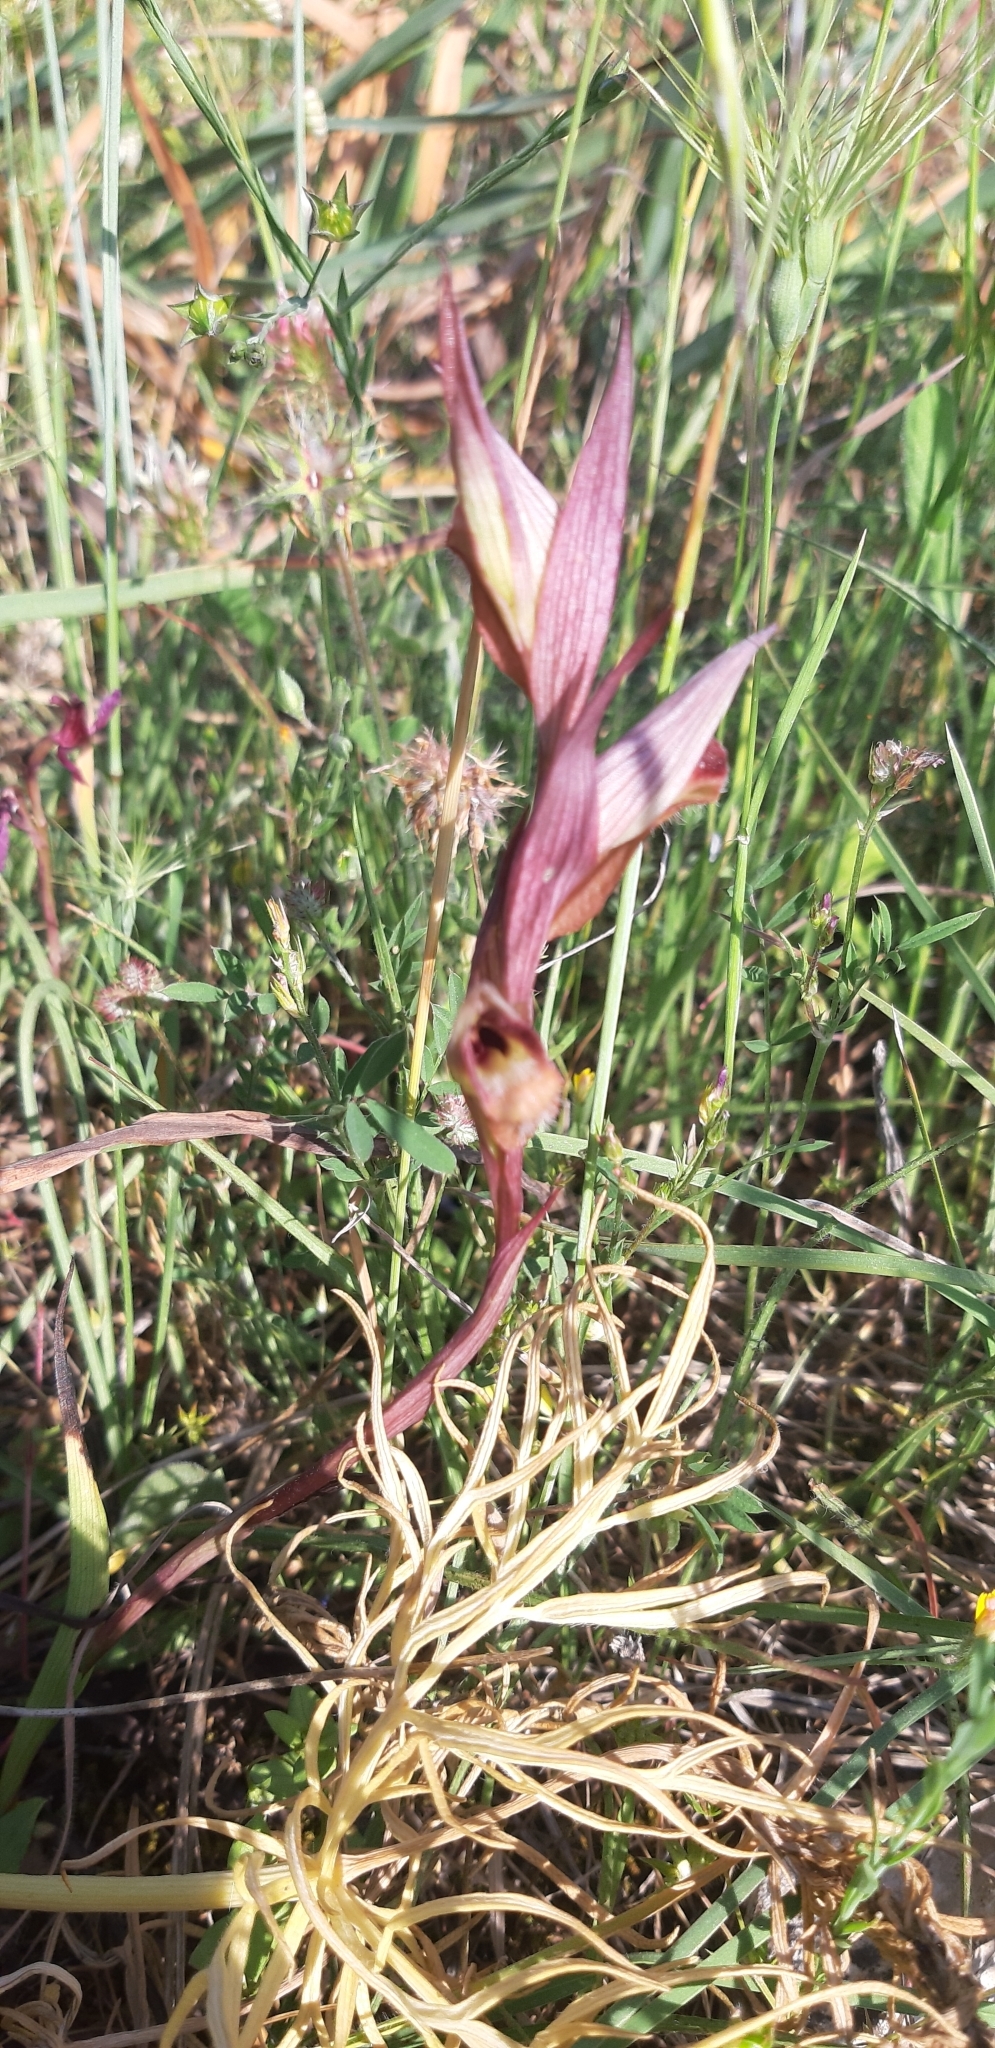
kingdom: Plantae
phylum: Tracheophyta
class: Liliopsida
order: Asparagales
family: Orchidaceae
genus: Serapias
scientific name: Serapias vomeracea
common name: Long-lipped tongue-orchid
